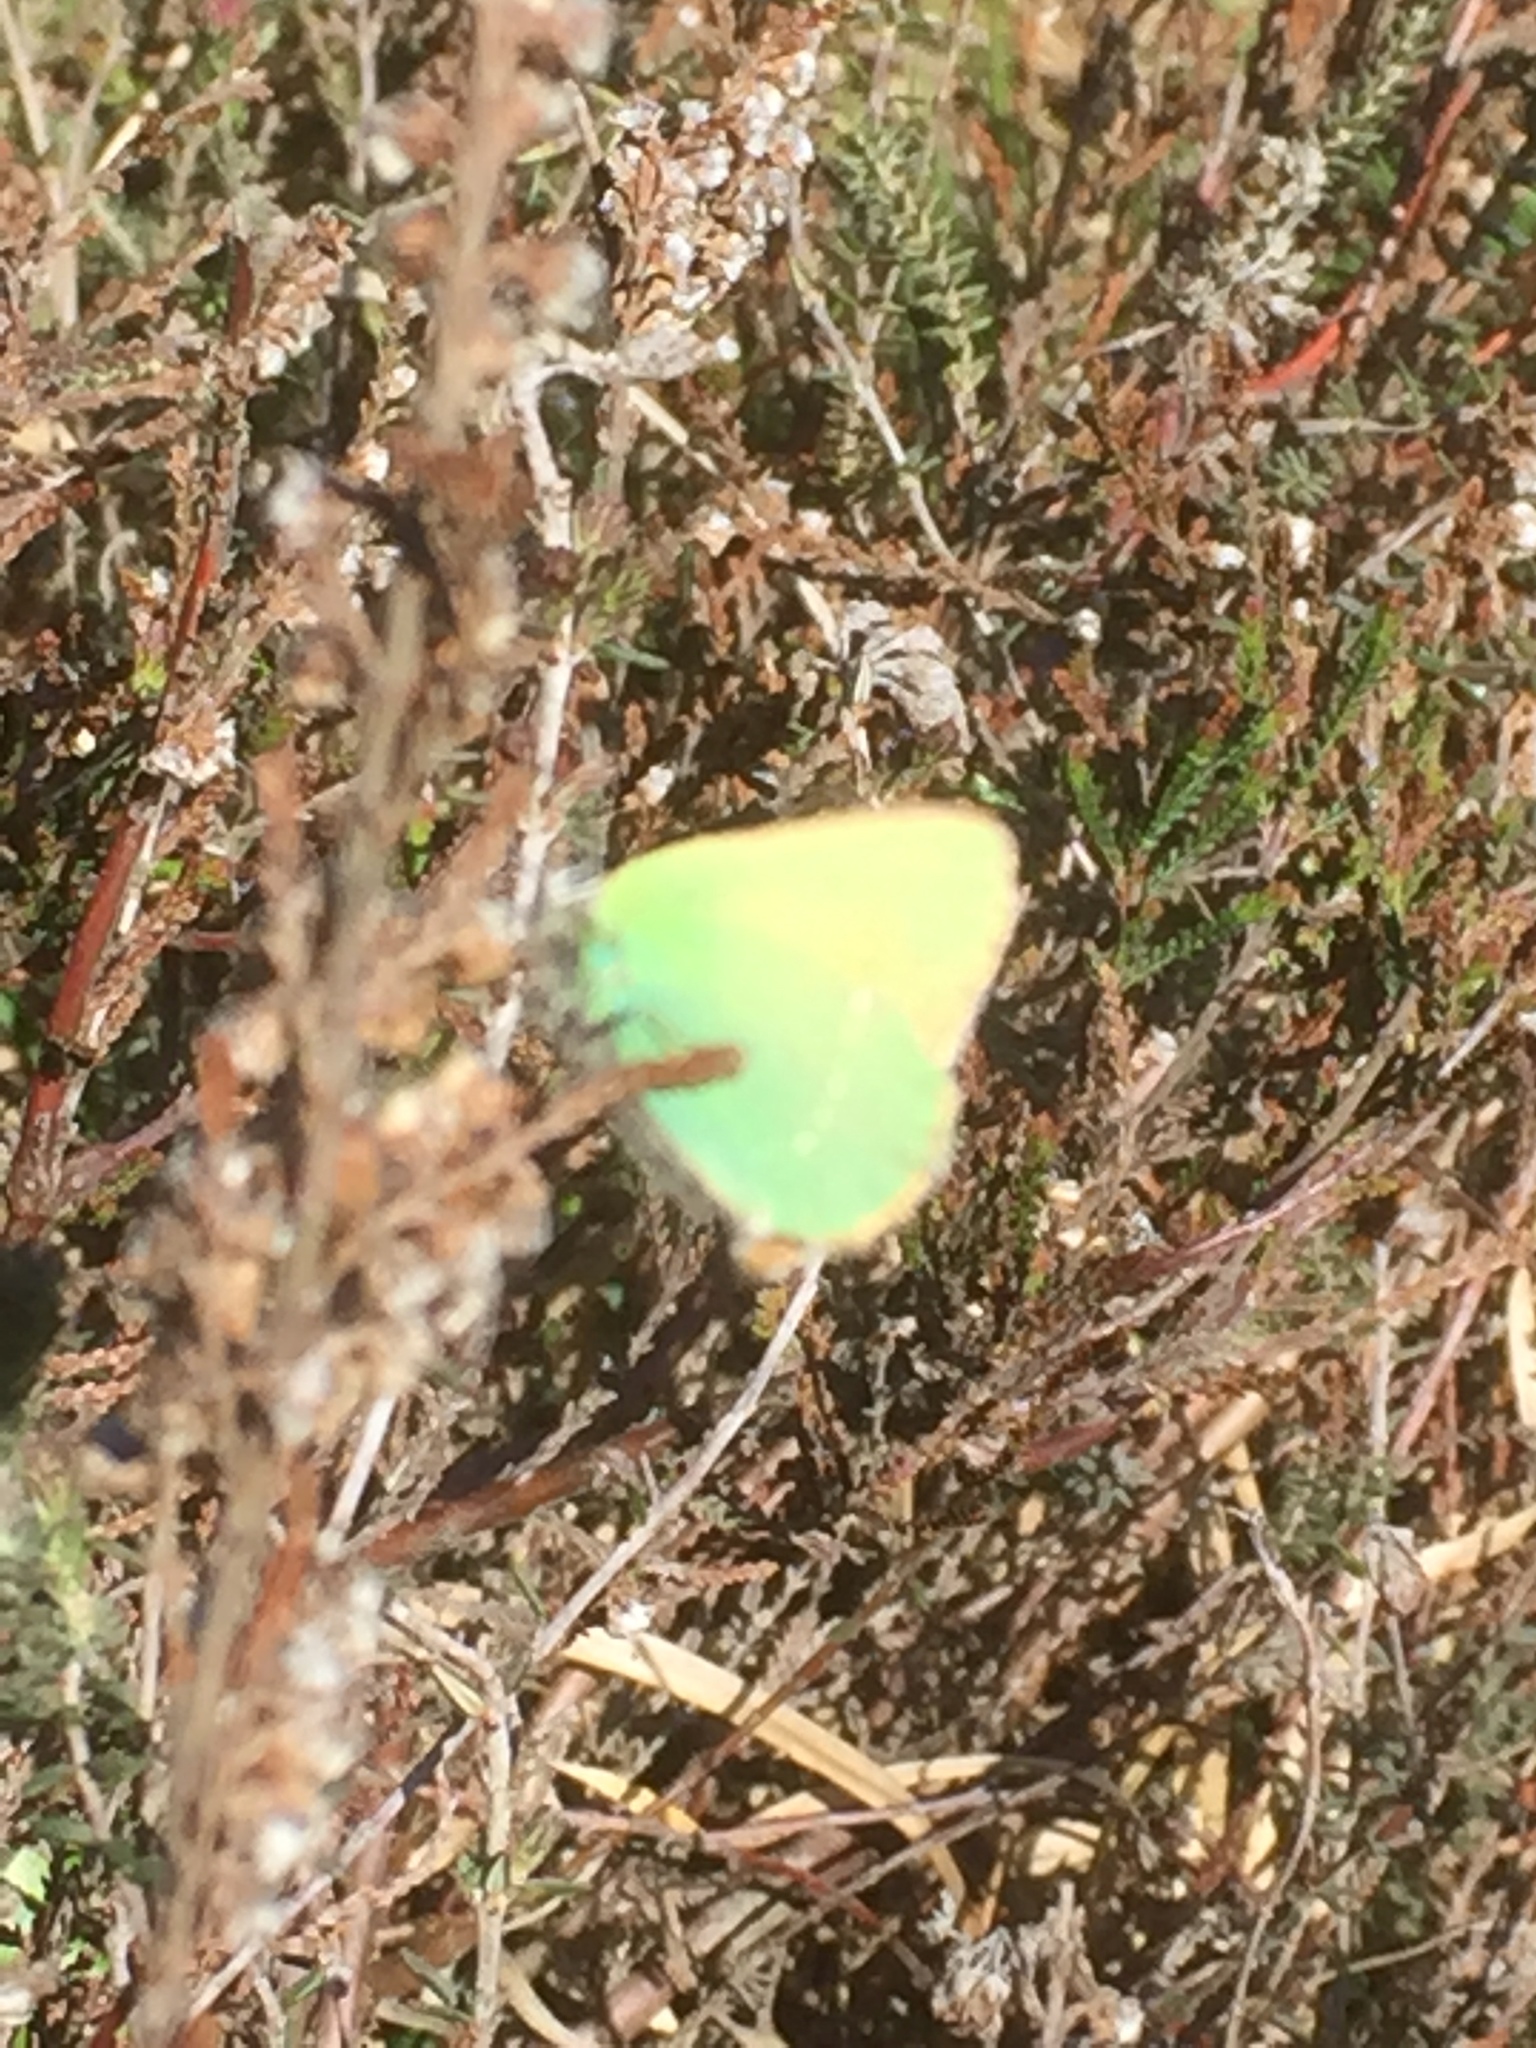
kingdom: Animalia
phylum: Arthropoda
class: Insecta
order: Lepidoptera
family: Lycaenidae
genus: Callophrys
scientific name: Callophrys rubi
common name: Green hairstreak
